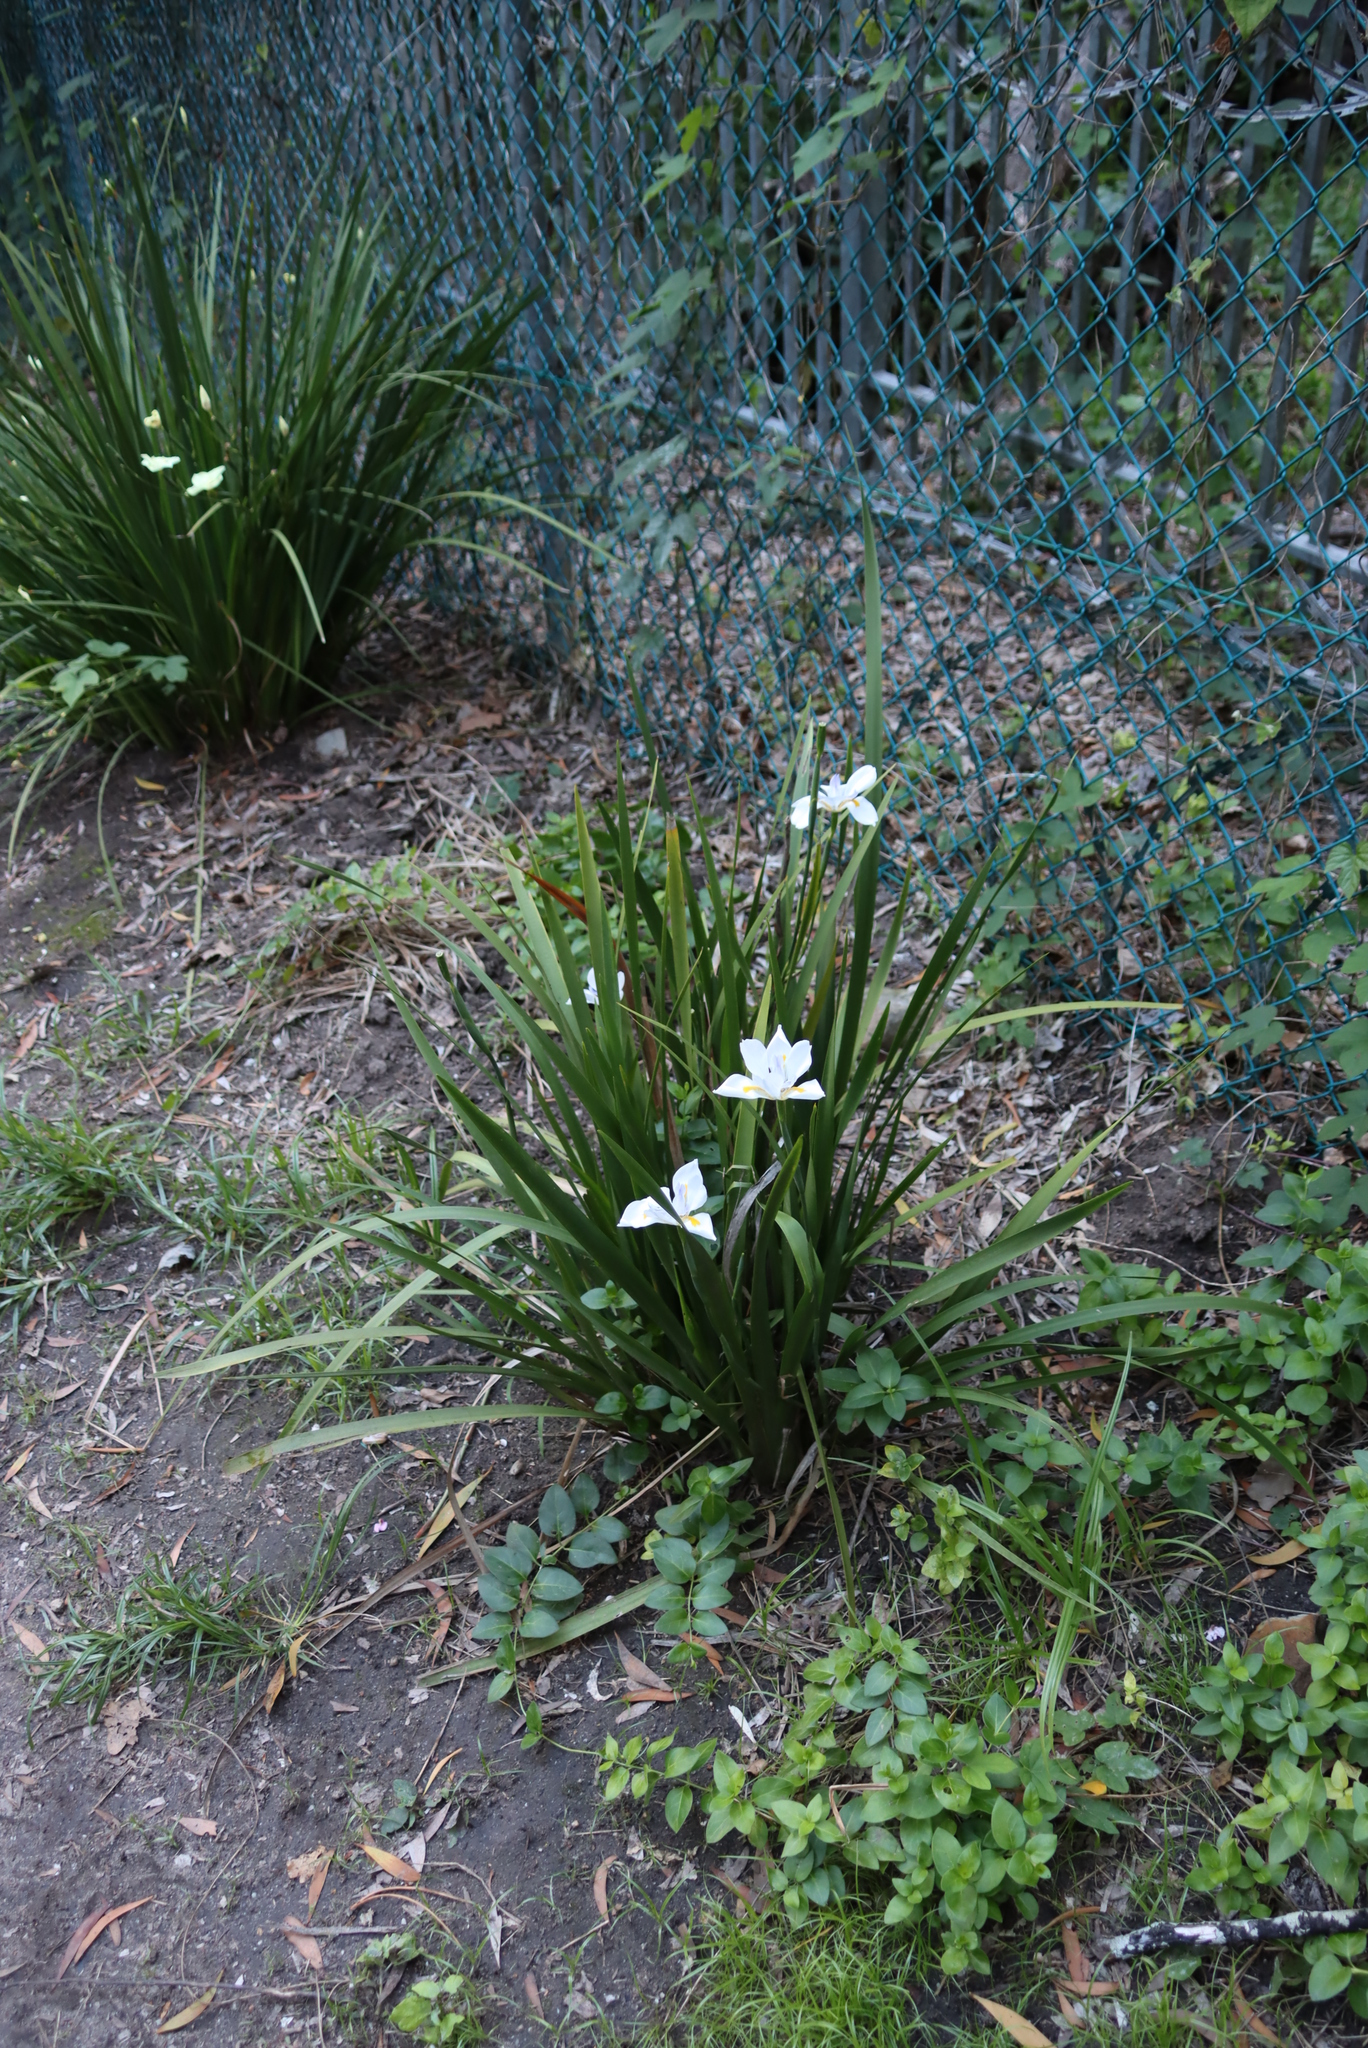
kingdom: Plantae
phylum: Tracheophyta
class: Liliopsida
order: Asparagales
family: Iridaceae
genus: Dietes
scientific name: Dietes grandiflora
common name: Wild iris
